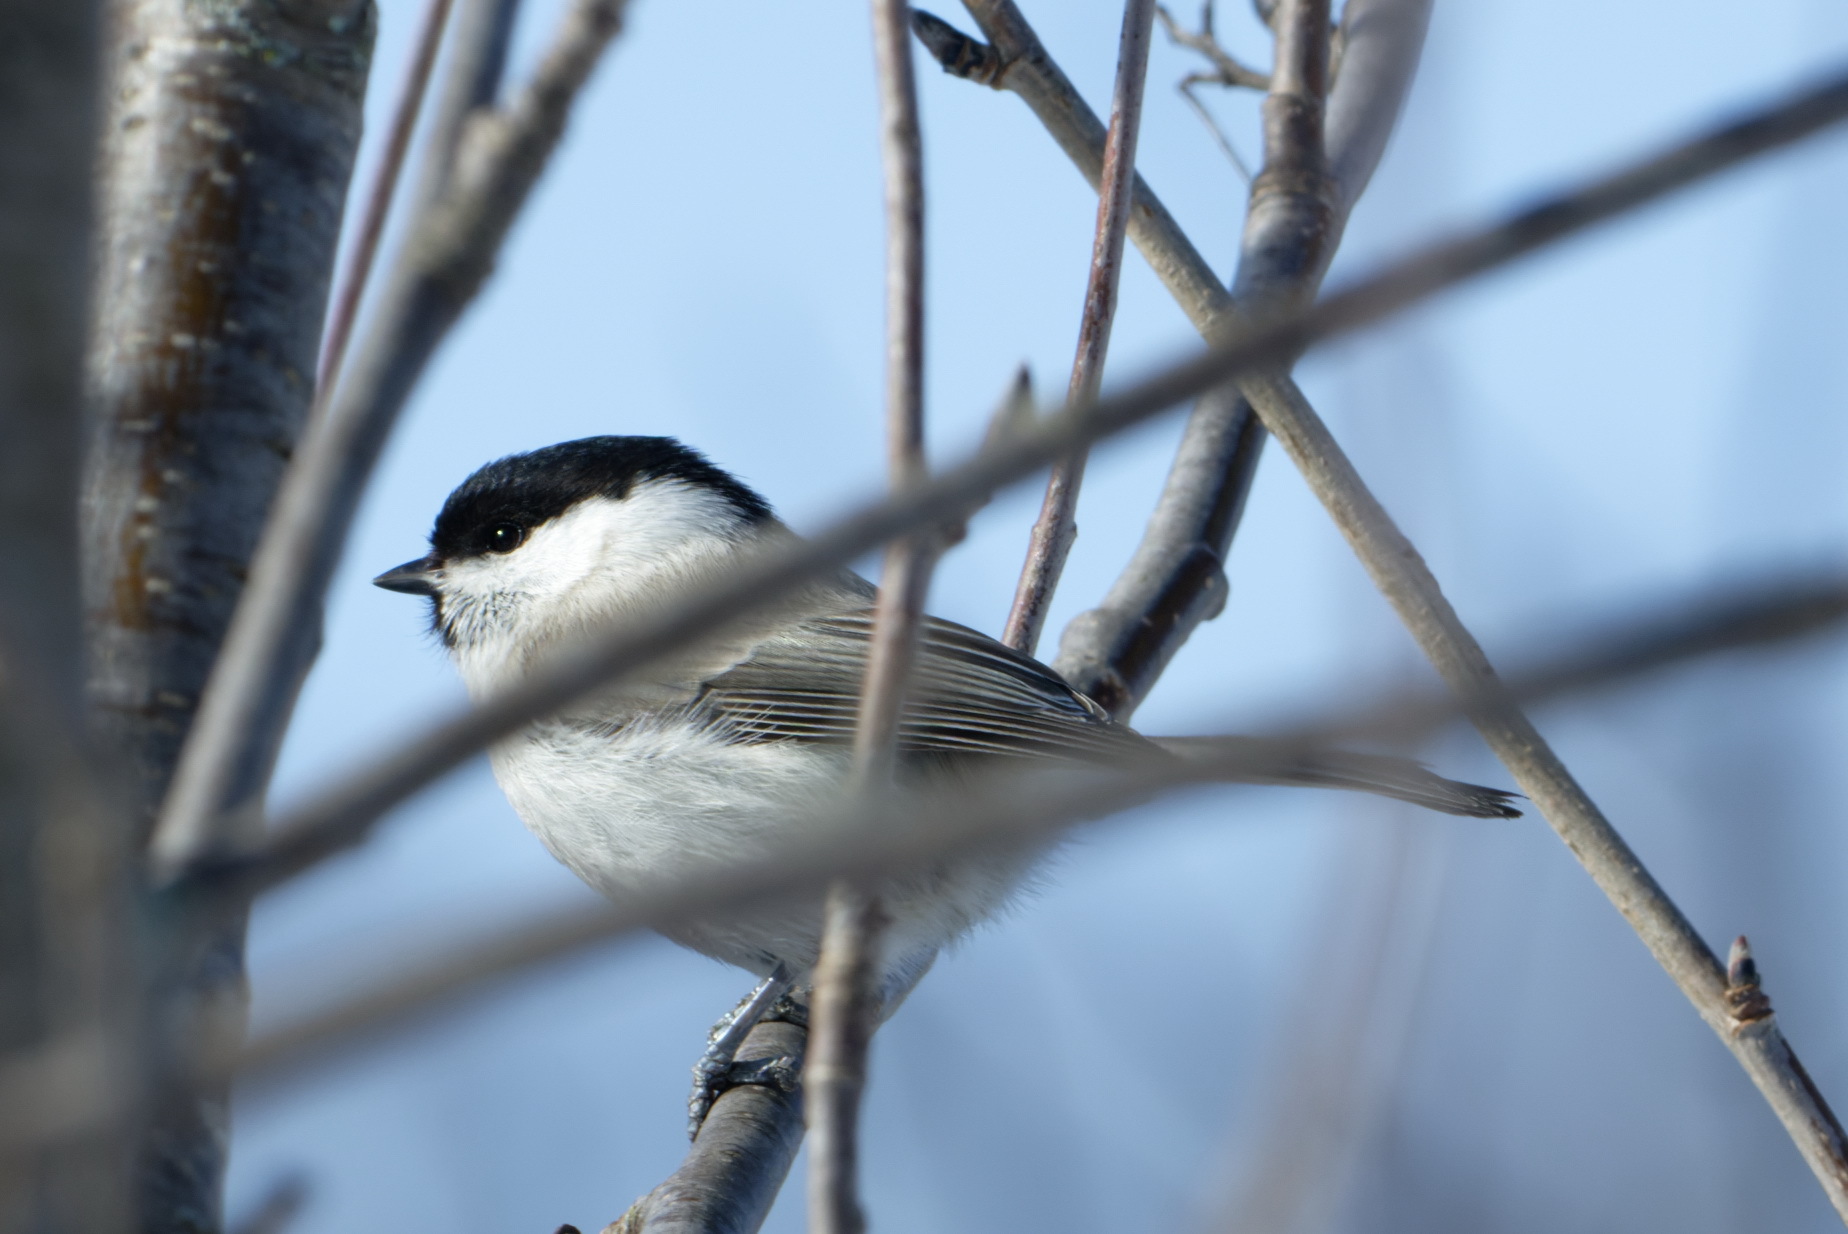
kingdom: Animalia
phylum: Chordata
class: Aves
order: Passeriformes
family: Paridae
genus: Poecile
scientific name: Poecile montanus
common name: Willow tit
